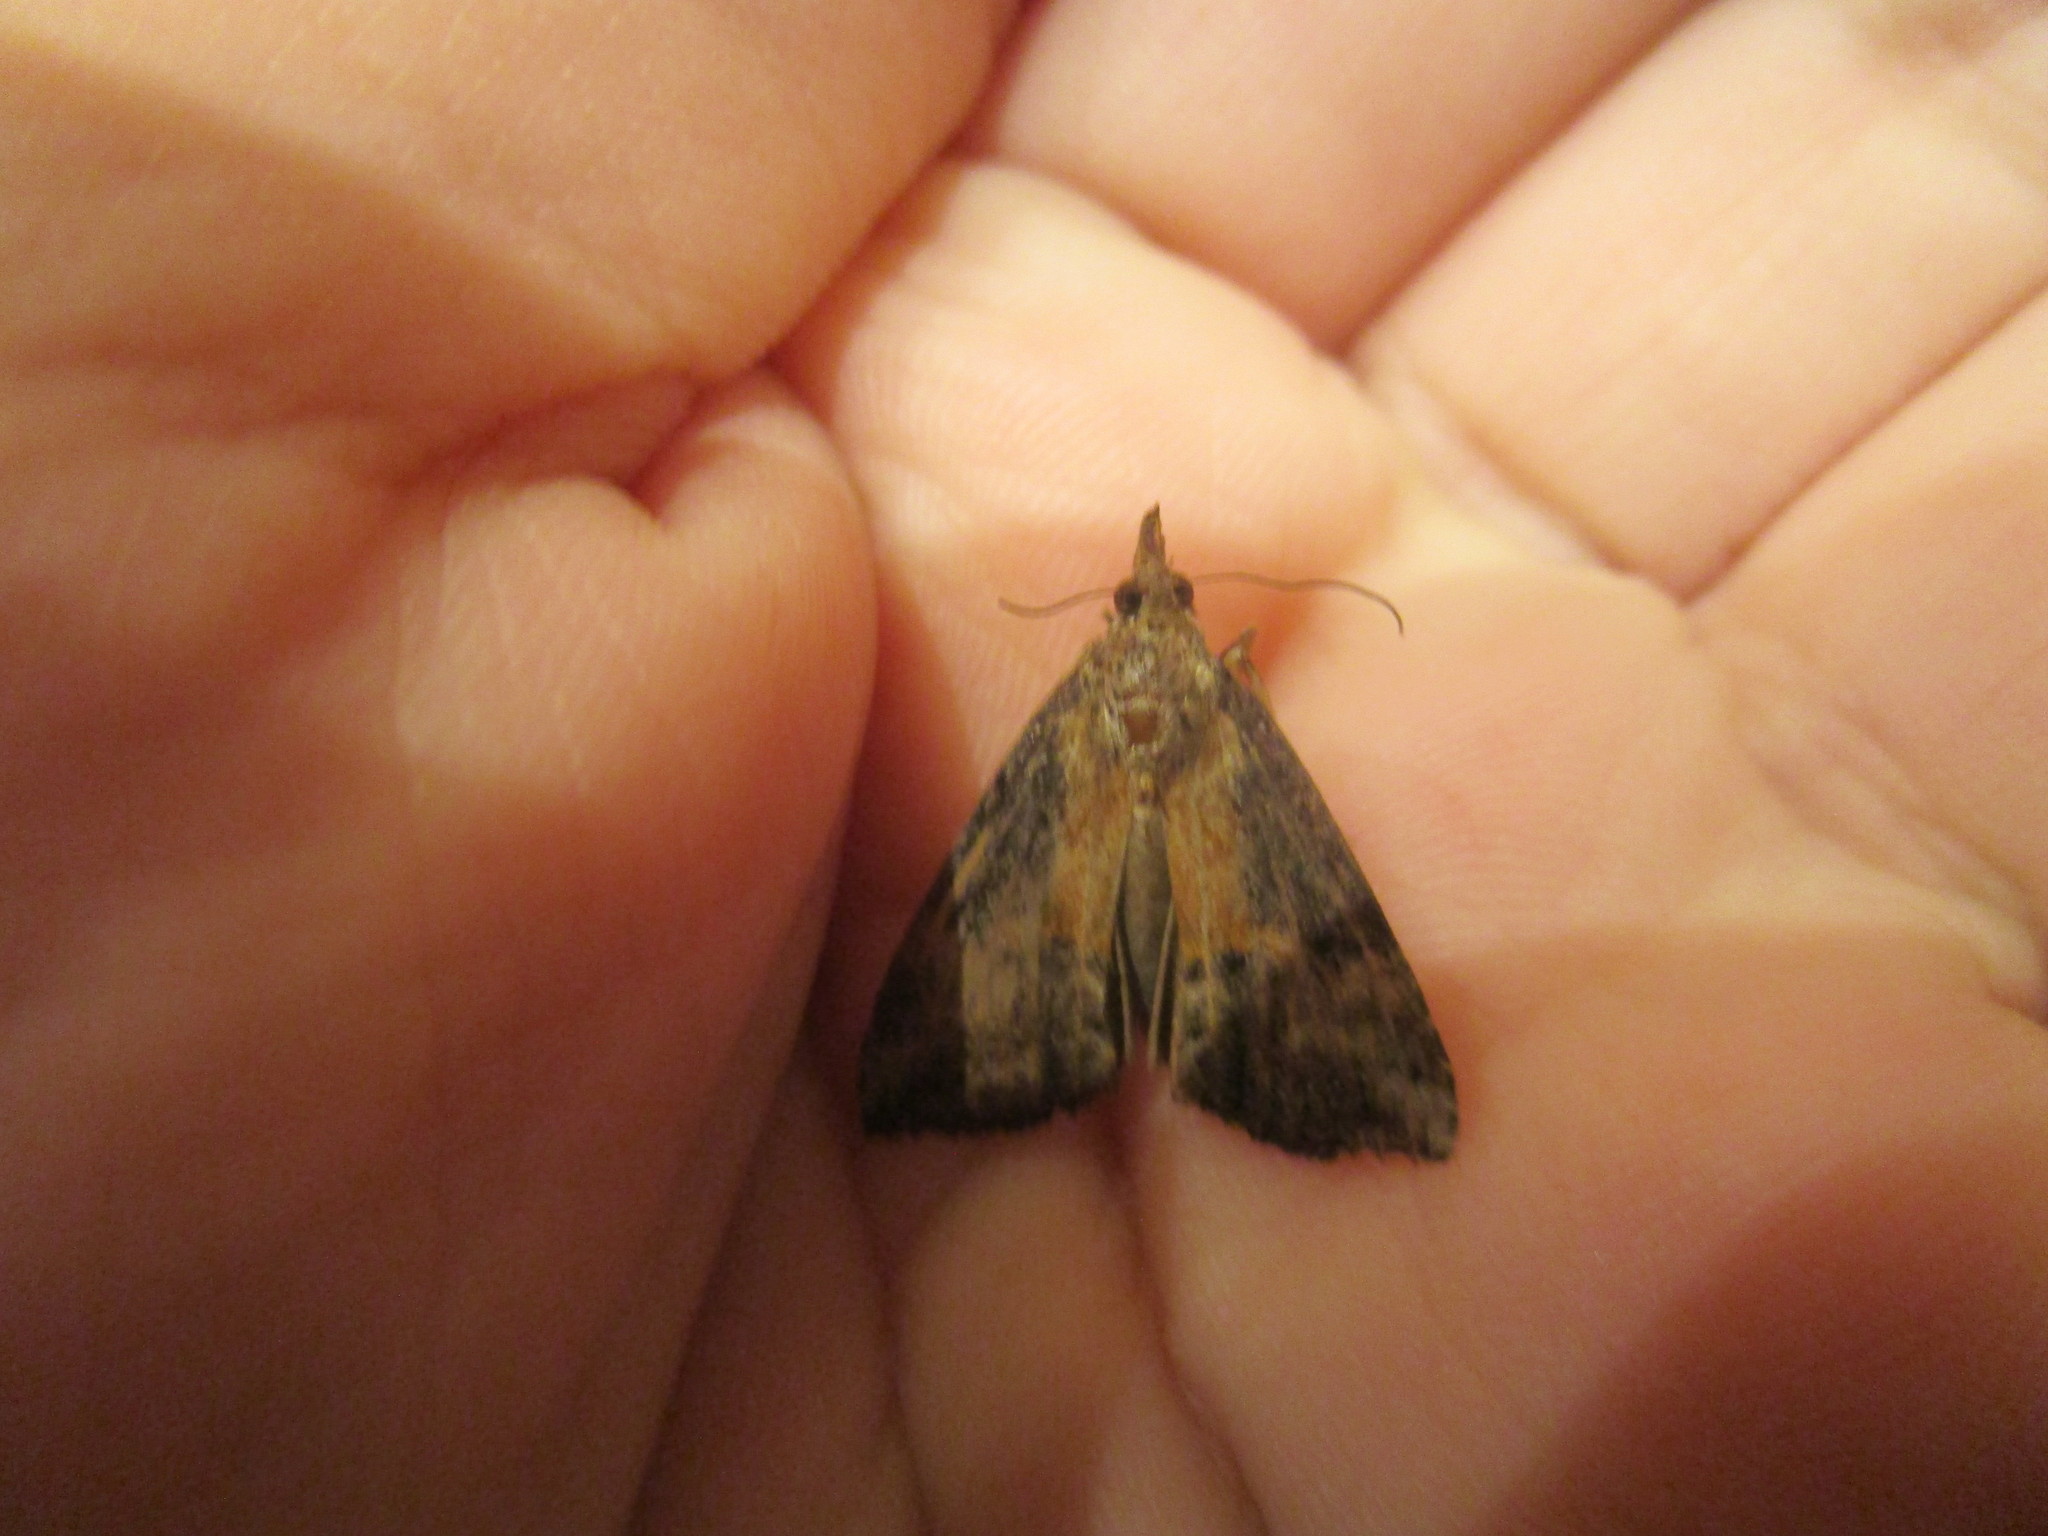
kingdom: Animalia
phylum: Arthropoda
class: Insecta
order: Lepidoptera
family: Erebidae
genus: Hypena
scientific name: Hypena scabra
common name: Green cloverworm
